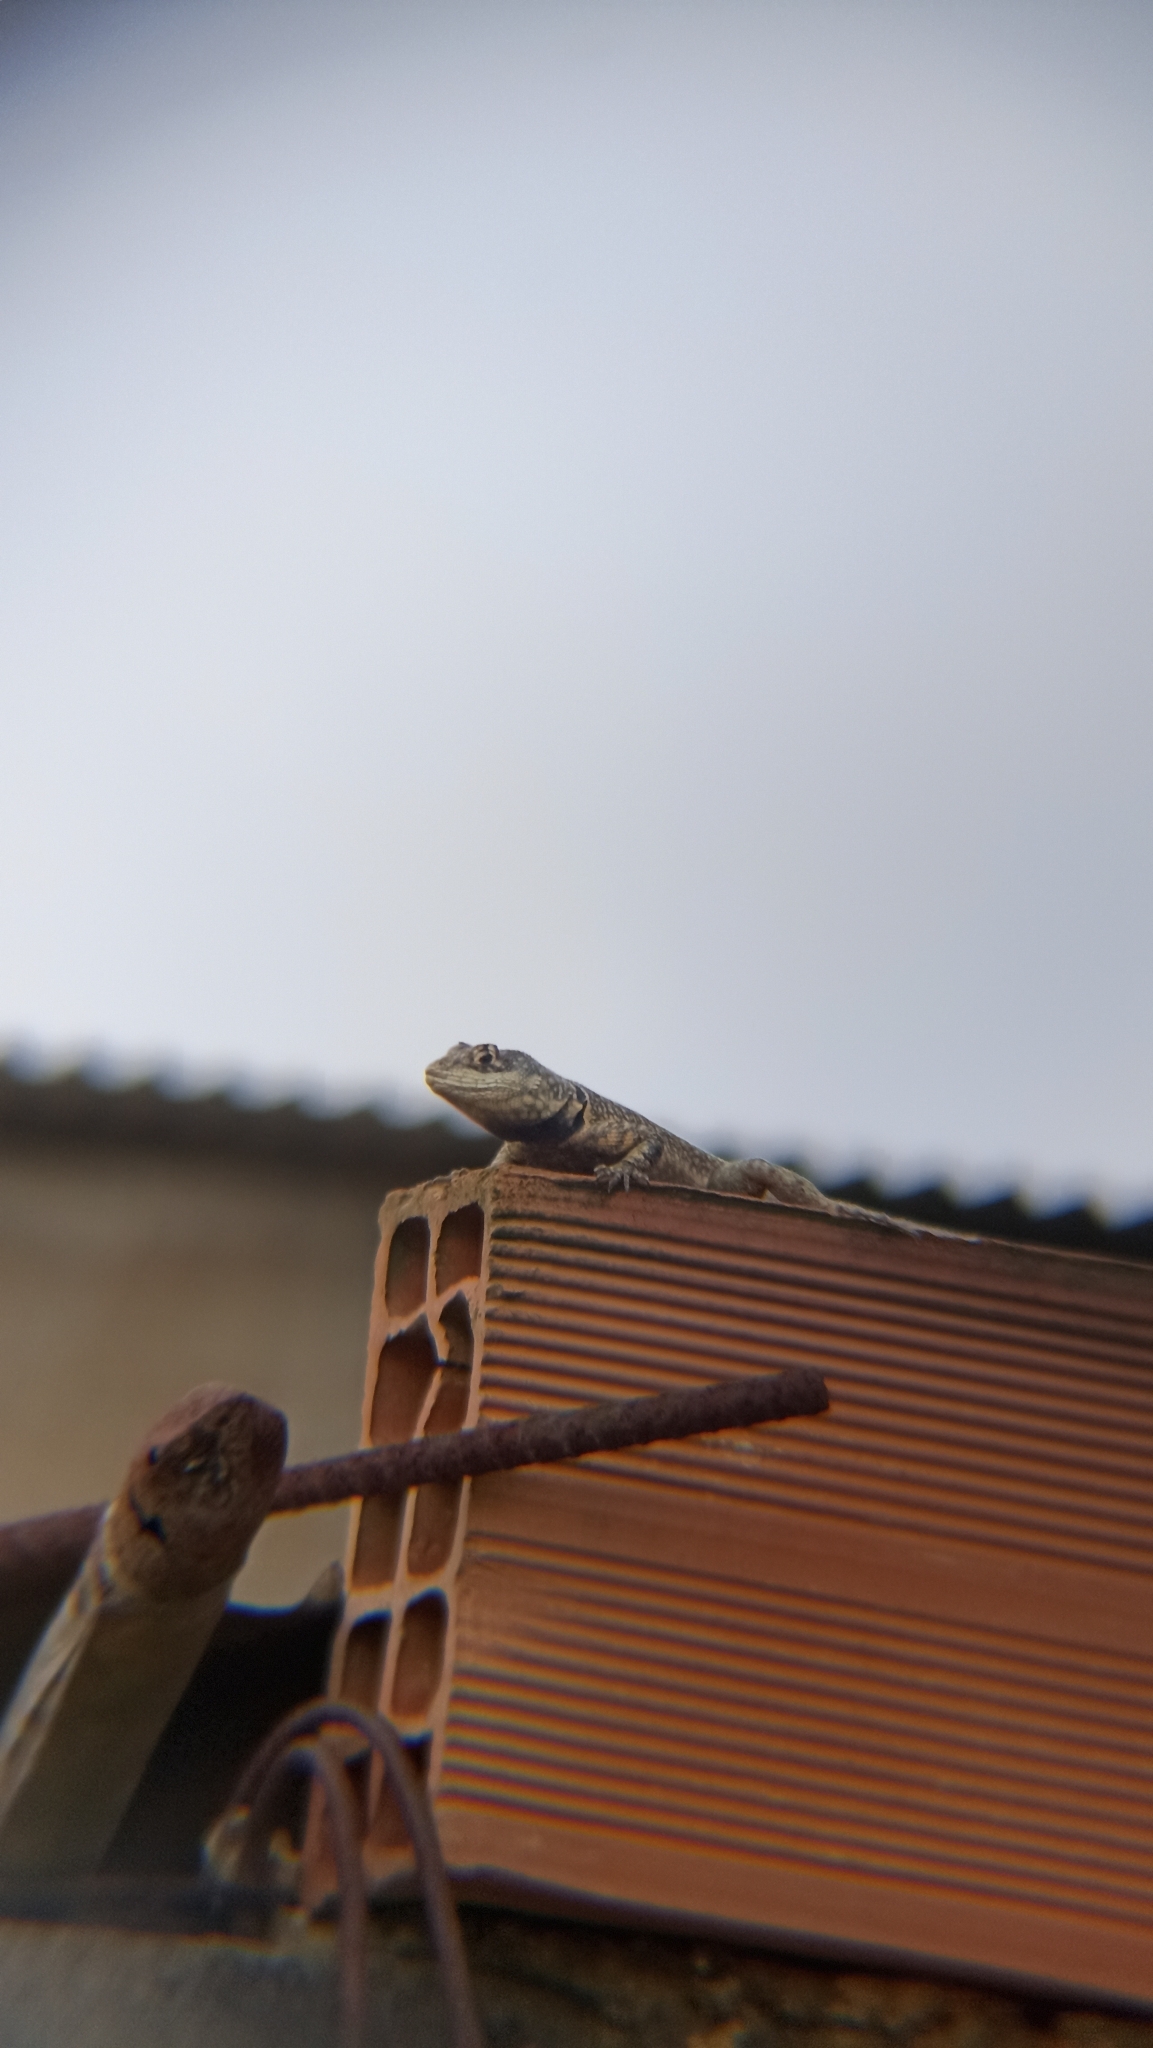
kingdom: Animalia
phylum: Chordata
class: Squamata
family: Tropiduridae
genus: Tropidurus
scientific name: Tropidurus torquatus
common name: Amazon lava lizard
